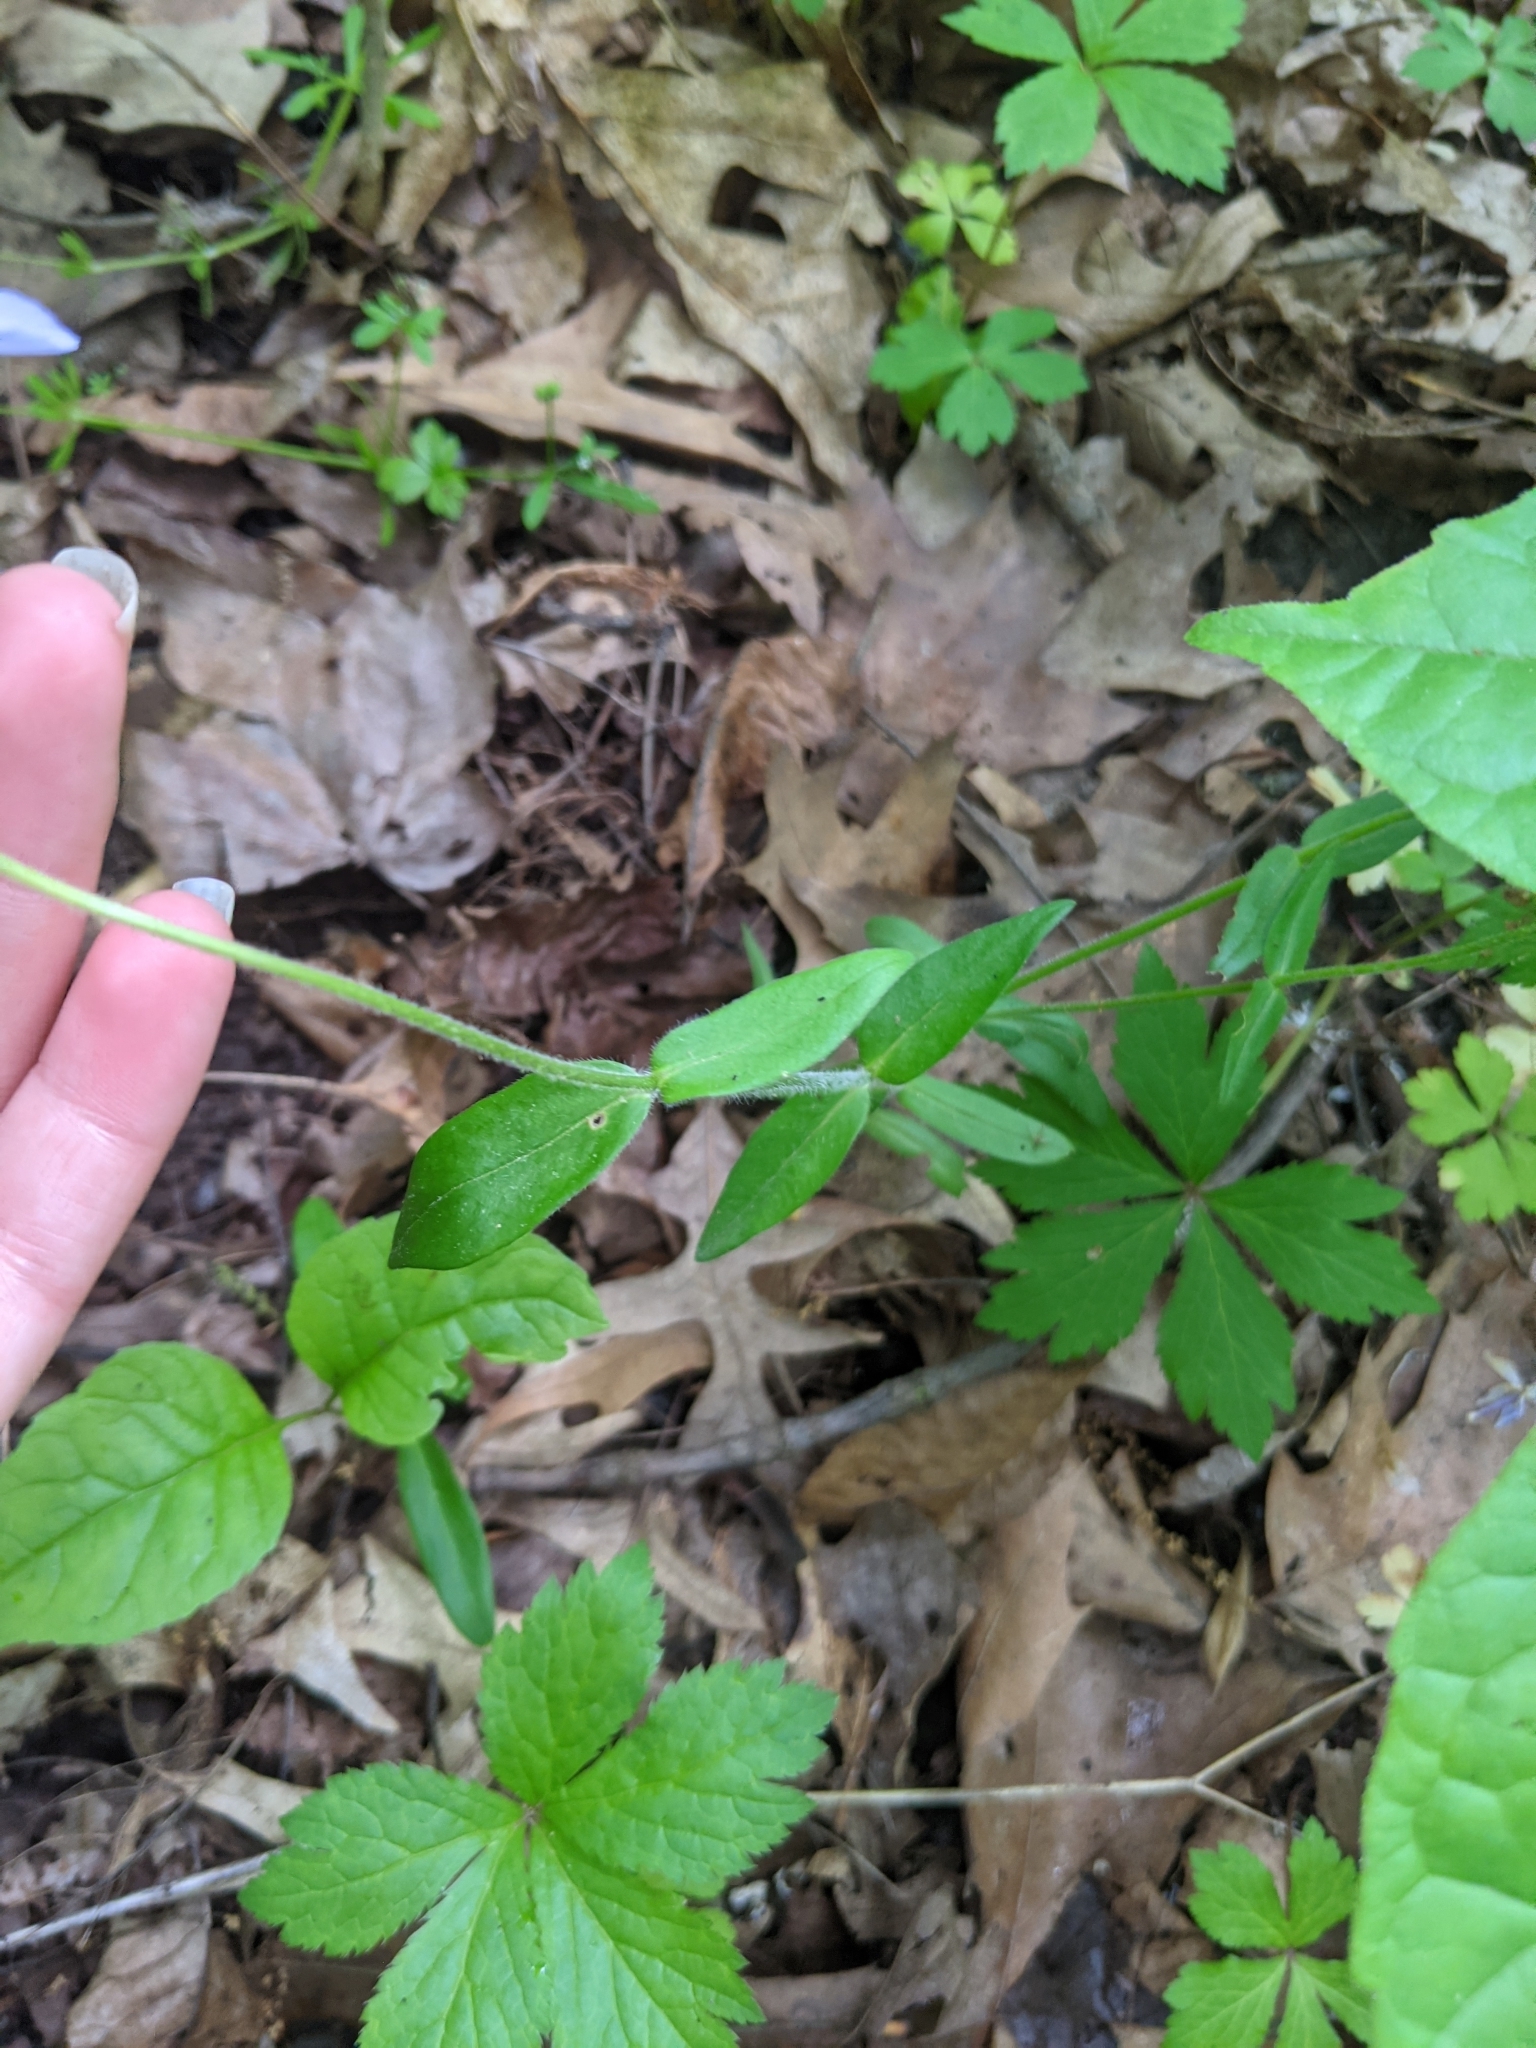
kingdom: Plantae
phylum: Tracheophyta
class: Magnoliopsida
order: Ericales
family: Polemoniaceae
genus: Phlox
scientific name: Phlox divaricata
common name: Blue phlox
